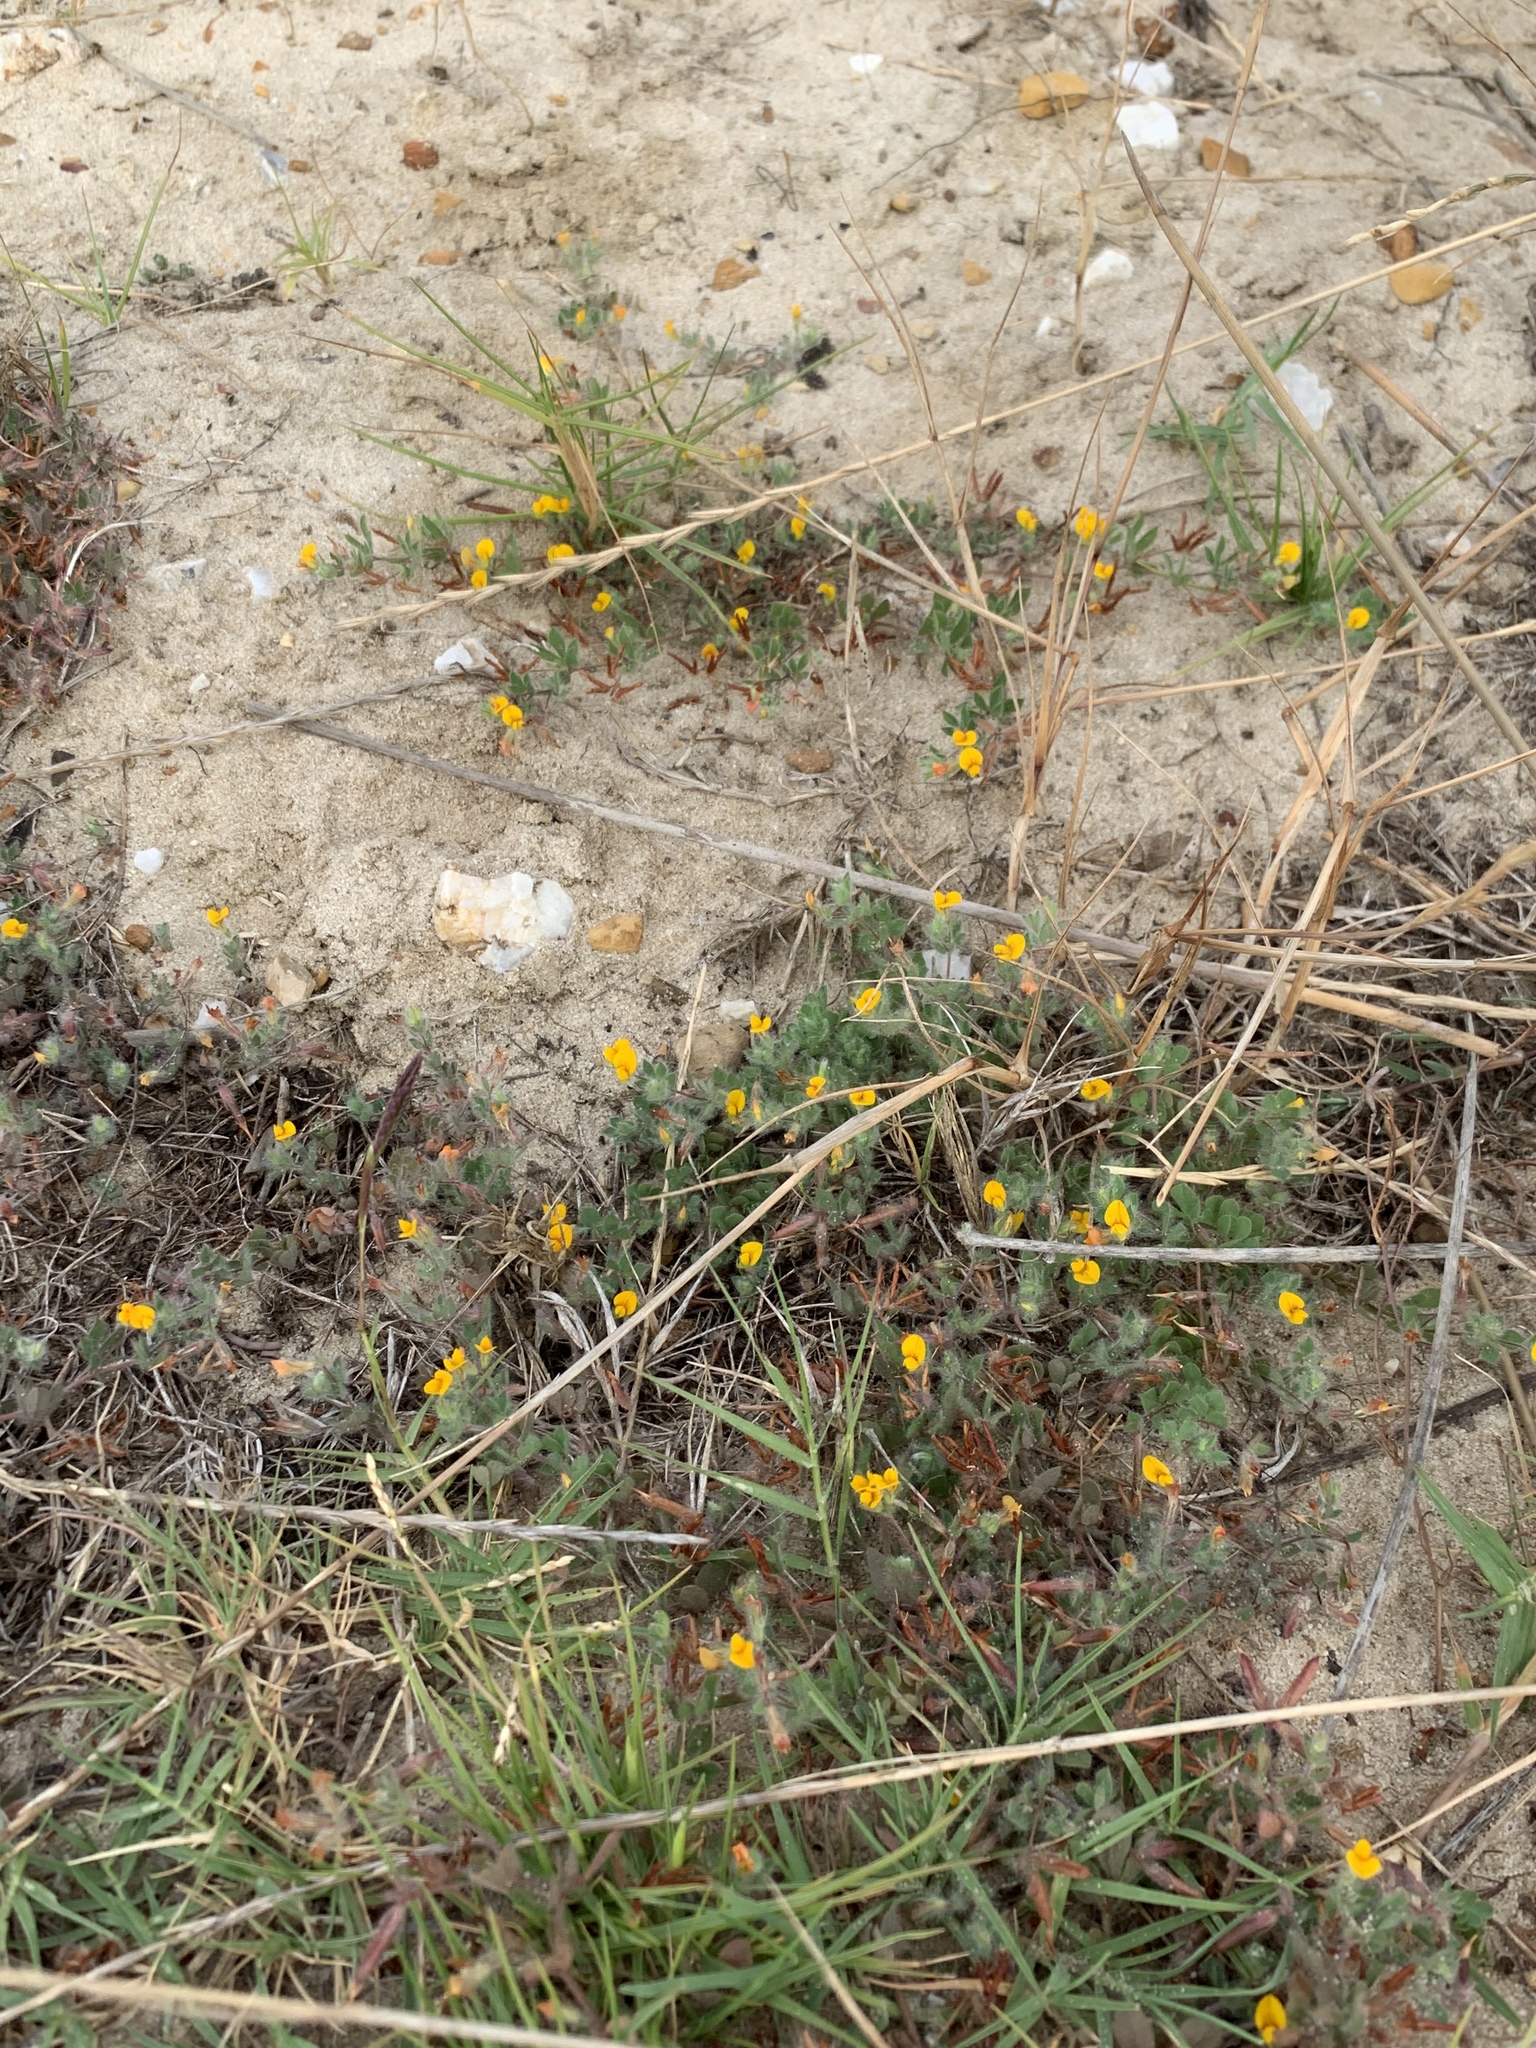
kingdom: Plantae
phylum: Tracheophyta
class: Magnoliopsida
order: Fabales
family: Fabaceae
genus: Lotus
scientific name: Lotus subbiflorus
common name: Hairy bird's-foot trefoil
